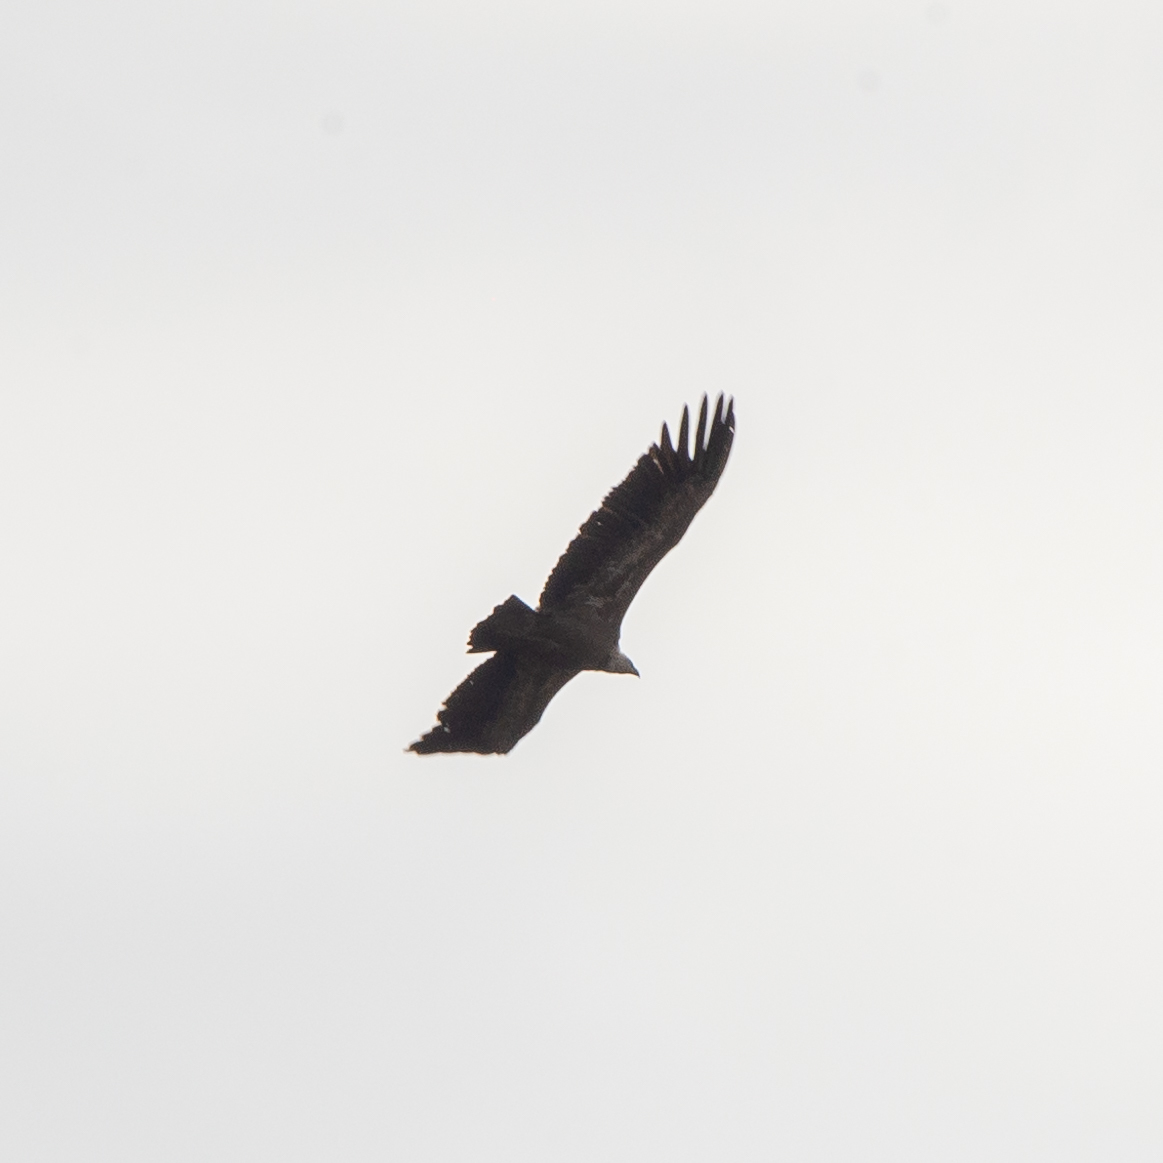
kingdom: Animalia
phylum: Chordata
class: Aves
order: Accipitriformes
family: Accipitridae
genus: Gyps
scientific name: Gyps fulvus
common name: Griffon vulture
